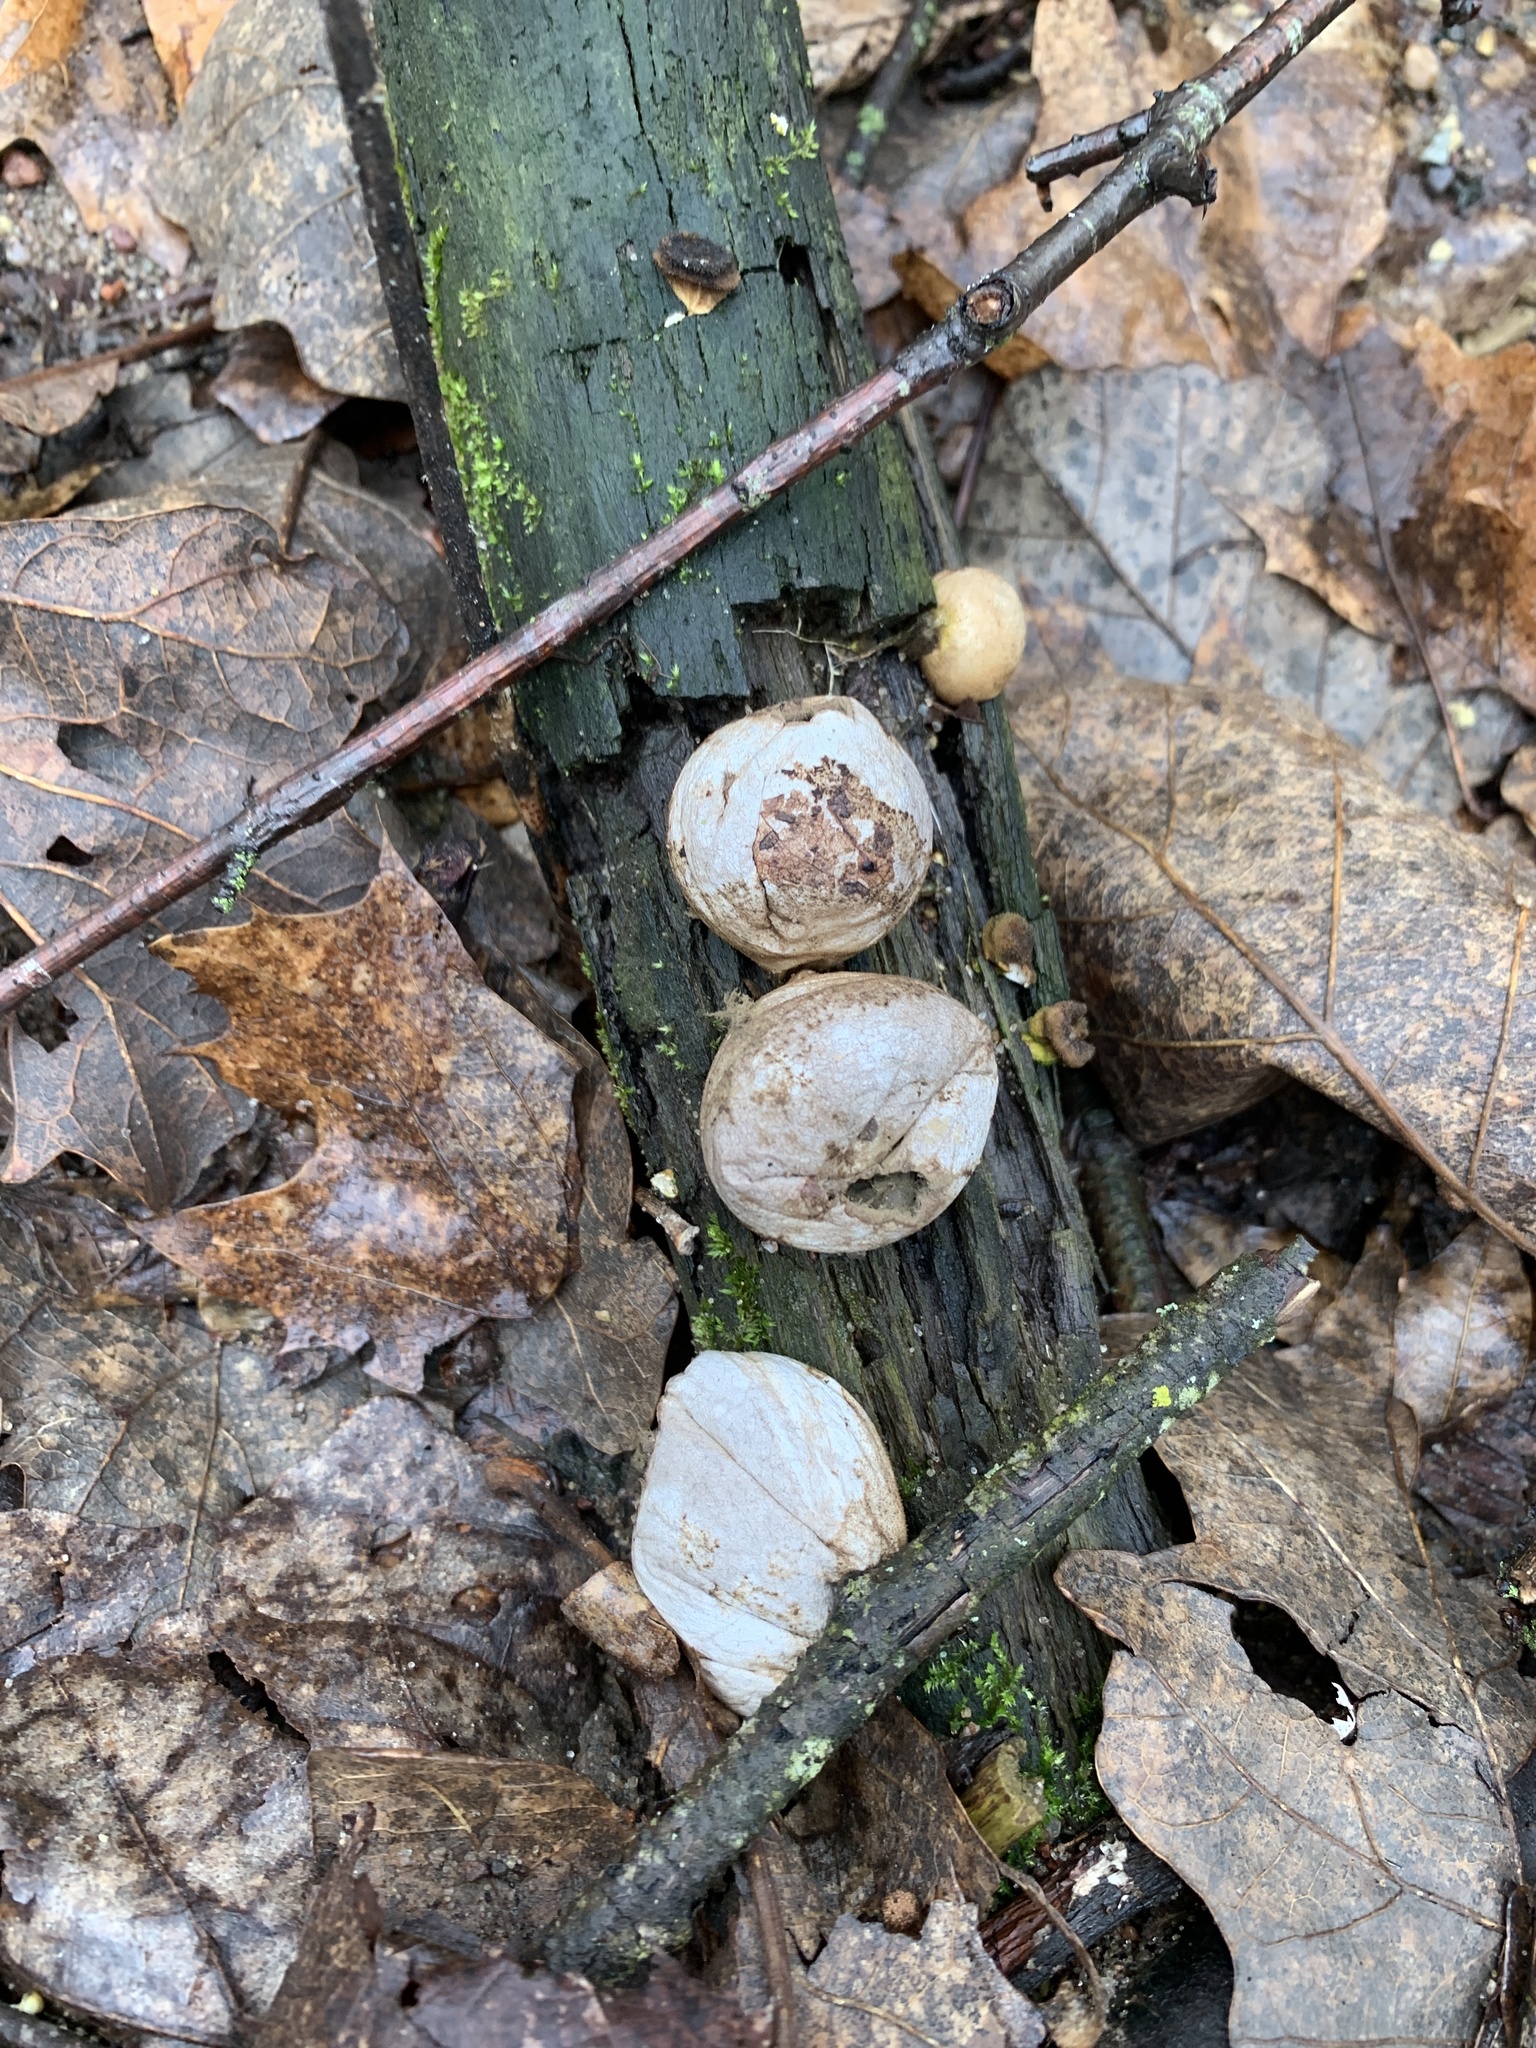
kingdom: Fungi
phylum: Basidiomycota
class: Agaricomycetes
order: Agaricales
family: Lycoperdaceae
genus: Apioperdon
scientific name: Apioperdon pyriforme
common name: Pear-shaped puffball
